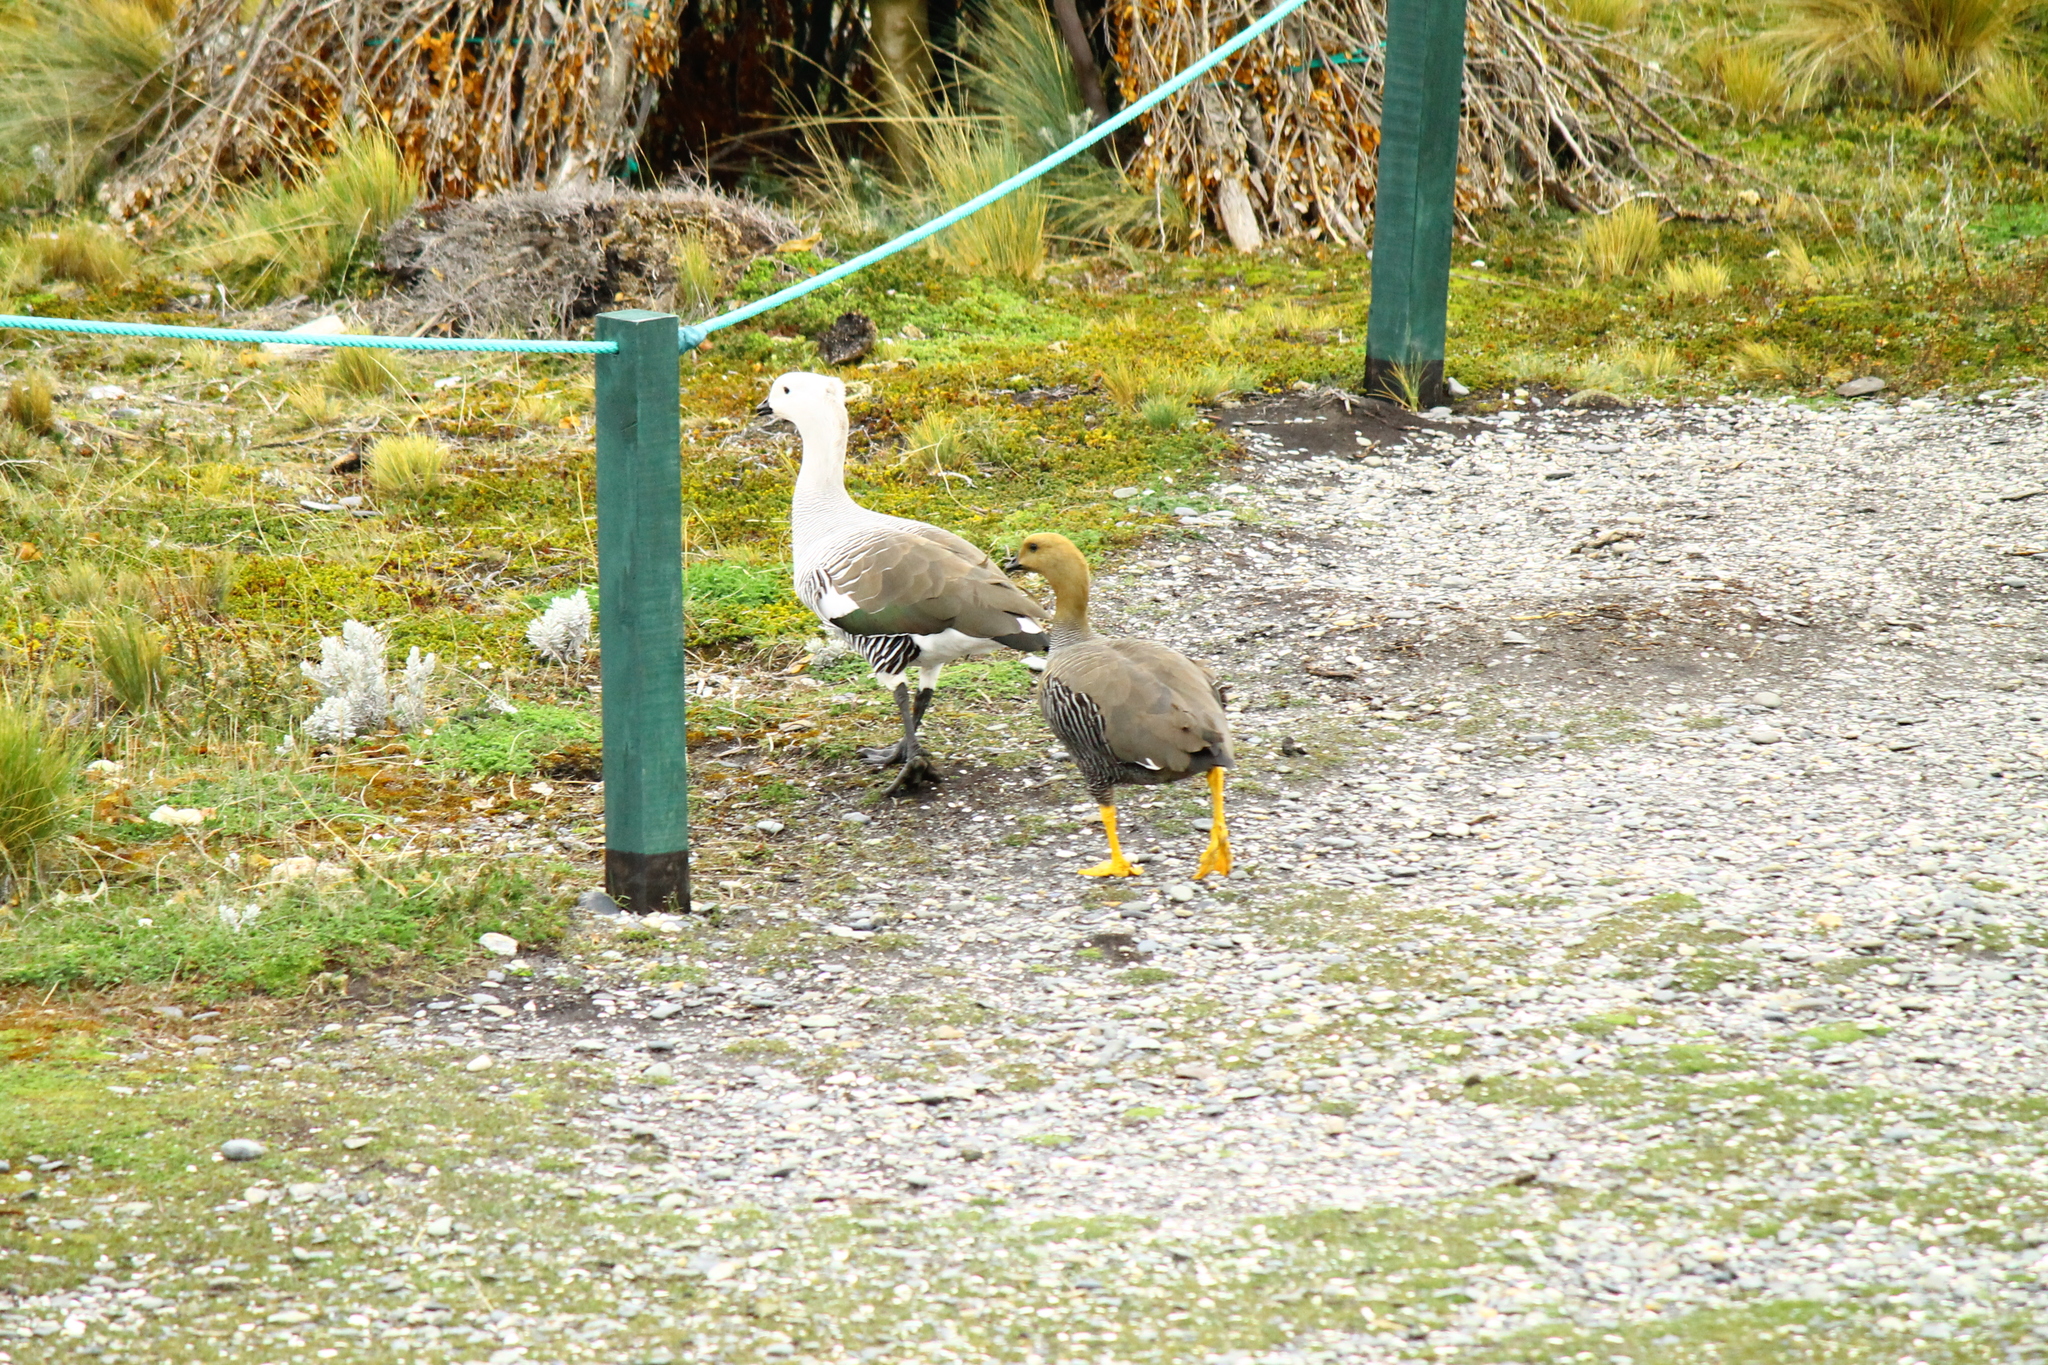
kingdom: Animalia
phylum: Chordata
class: Aves
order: Anseriformes
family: Anatidae
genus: Chloephaga
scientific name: Chloephaga picta
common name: Upland goose
